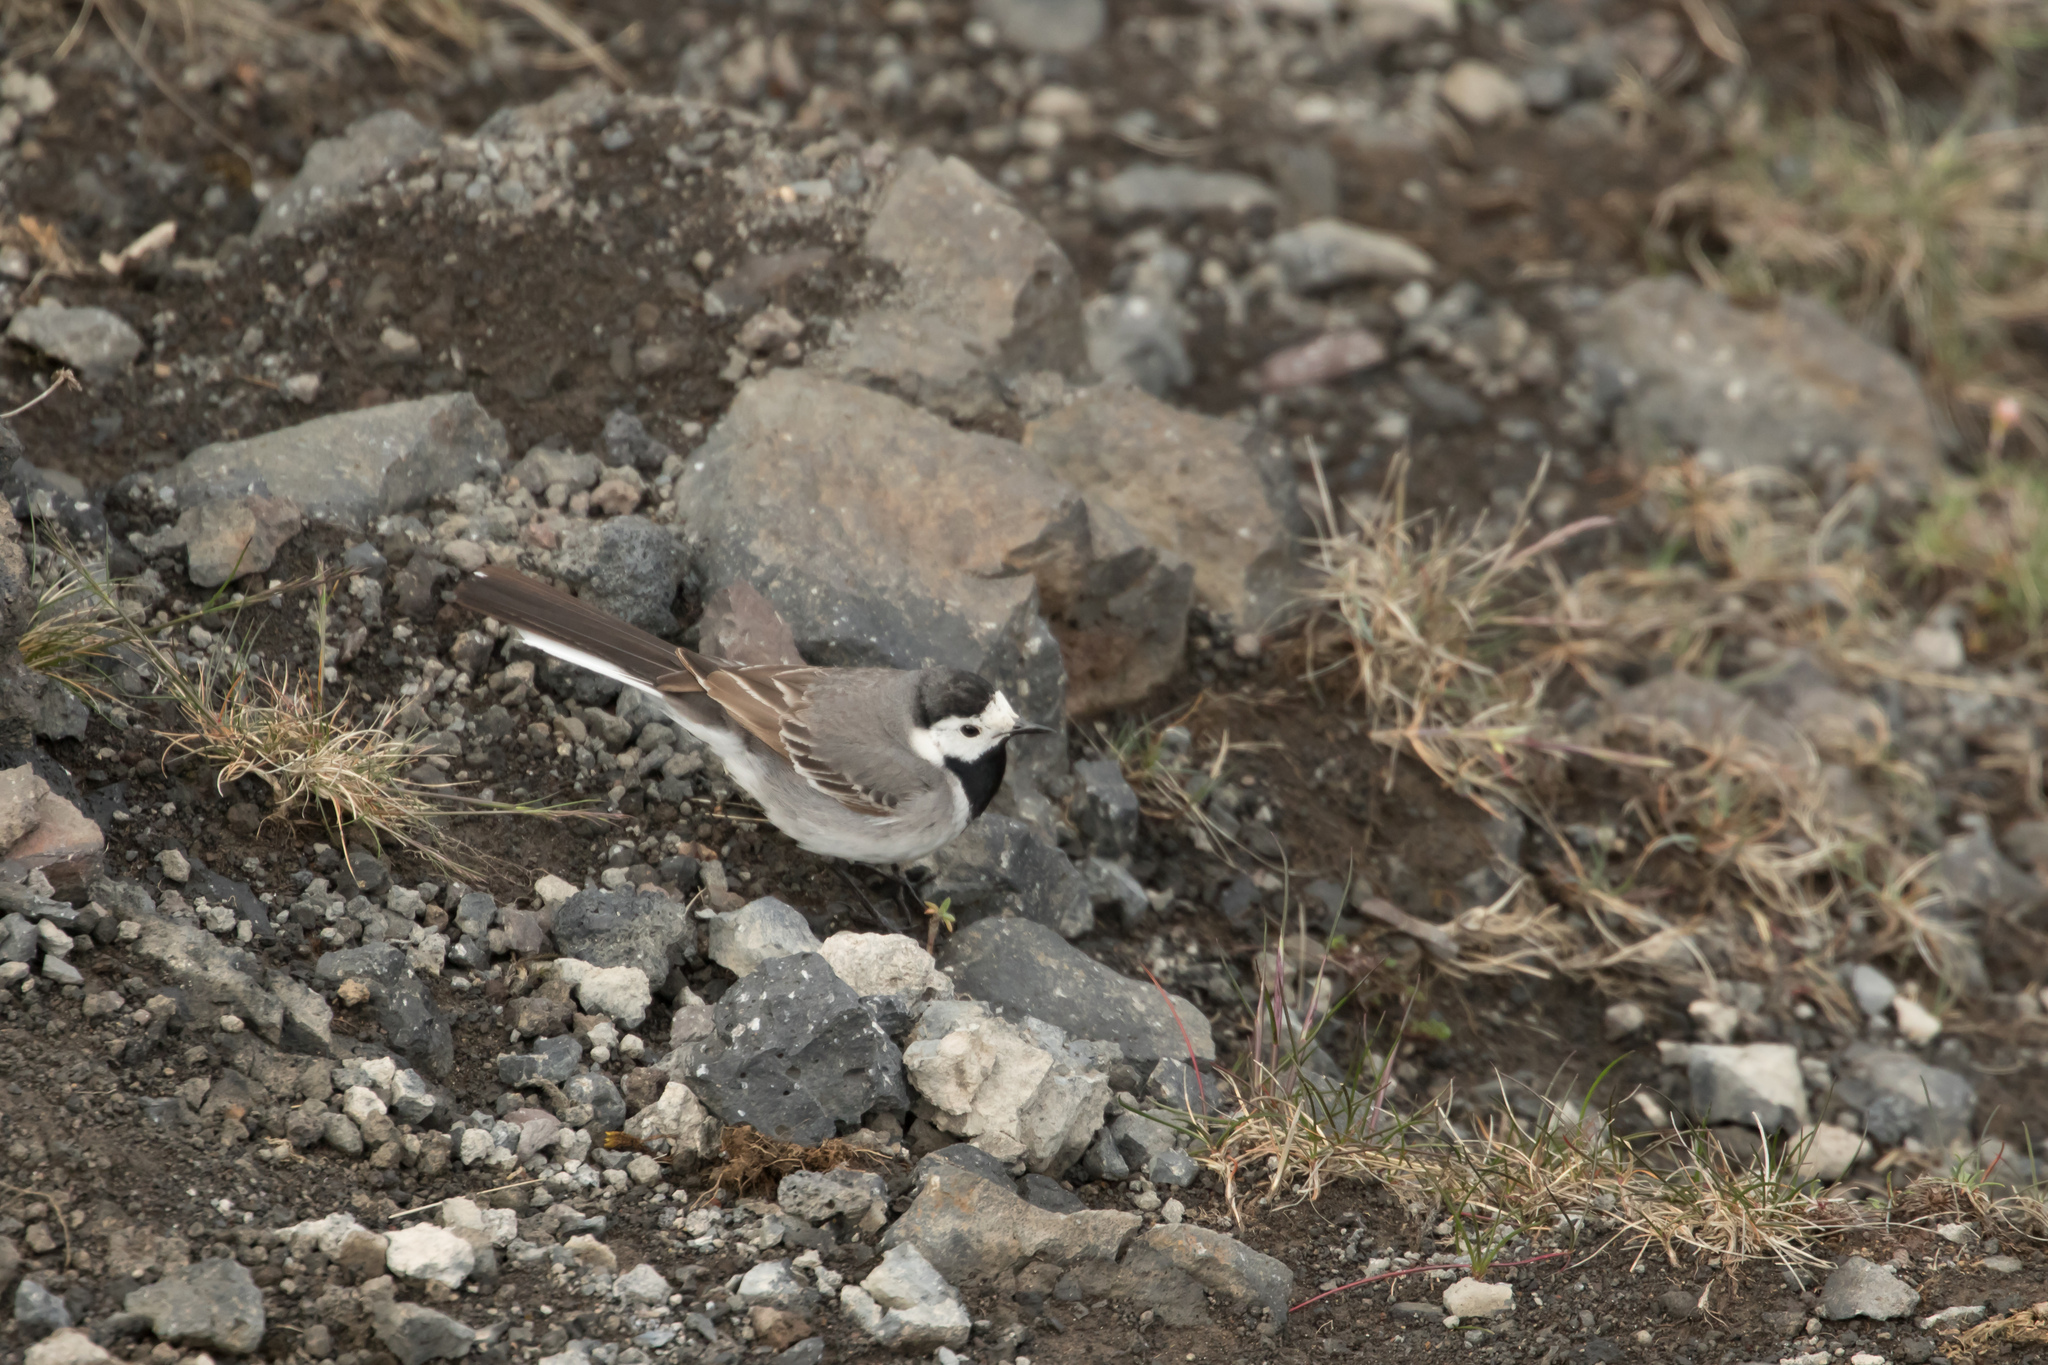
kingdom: Animalia
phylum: Chordata
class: Aves
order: Passeriformes
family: Motacillidae
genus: Motacilla
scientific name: Motacilla alba
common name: White wagtail
